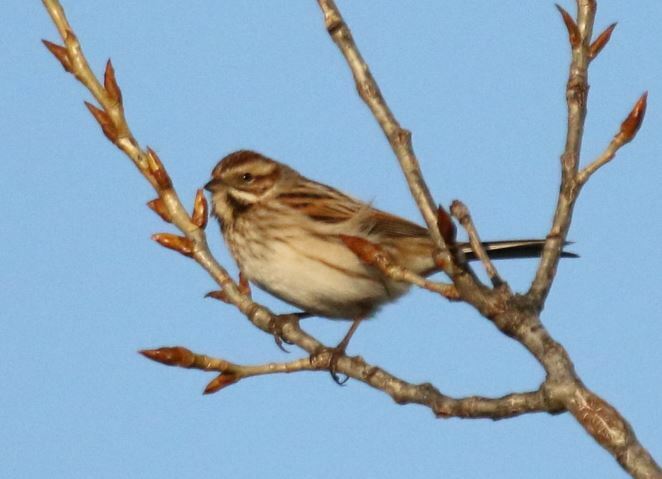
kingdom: Animalia
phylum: Chordata
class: Aves
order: Passeriformes
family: Emberizidae
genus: Emberiza
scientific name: Emberiza schoeniclus
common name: Reed bunting
